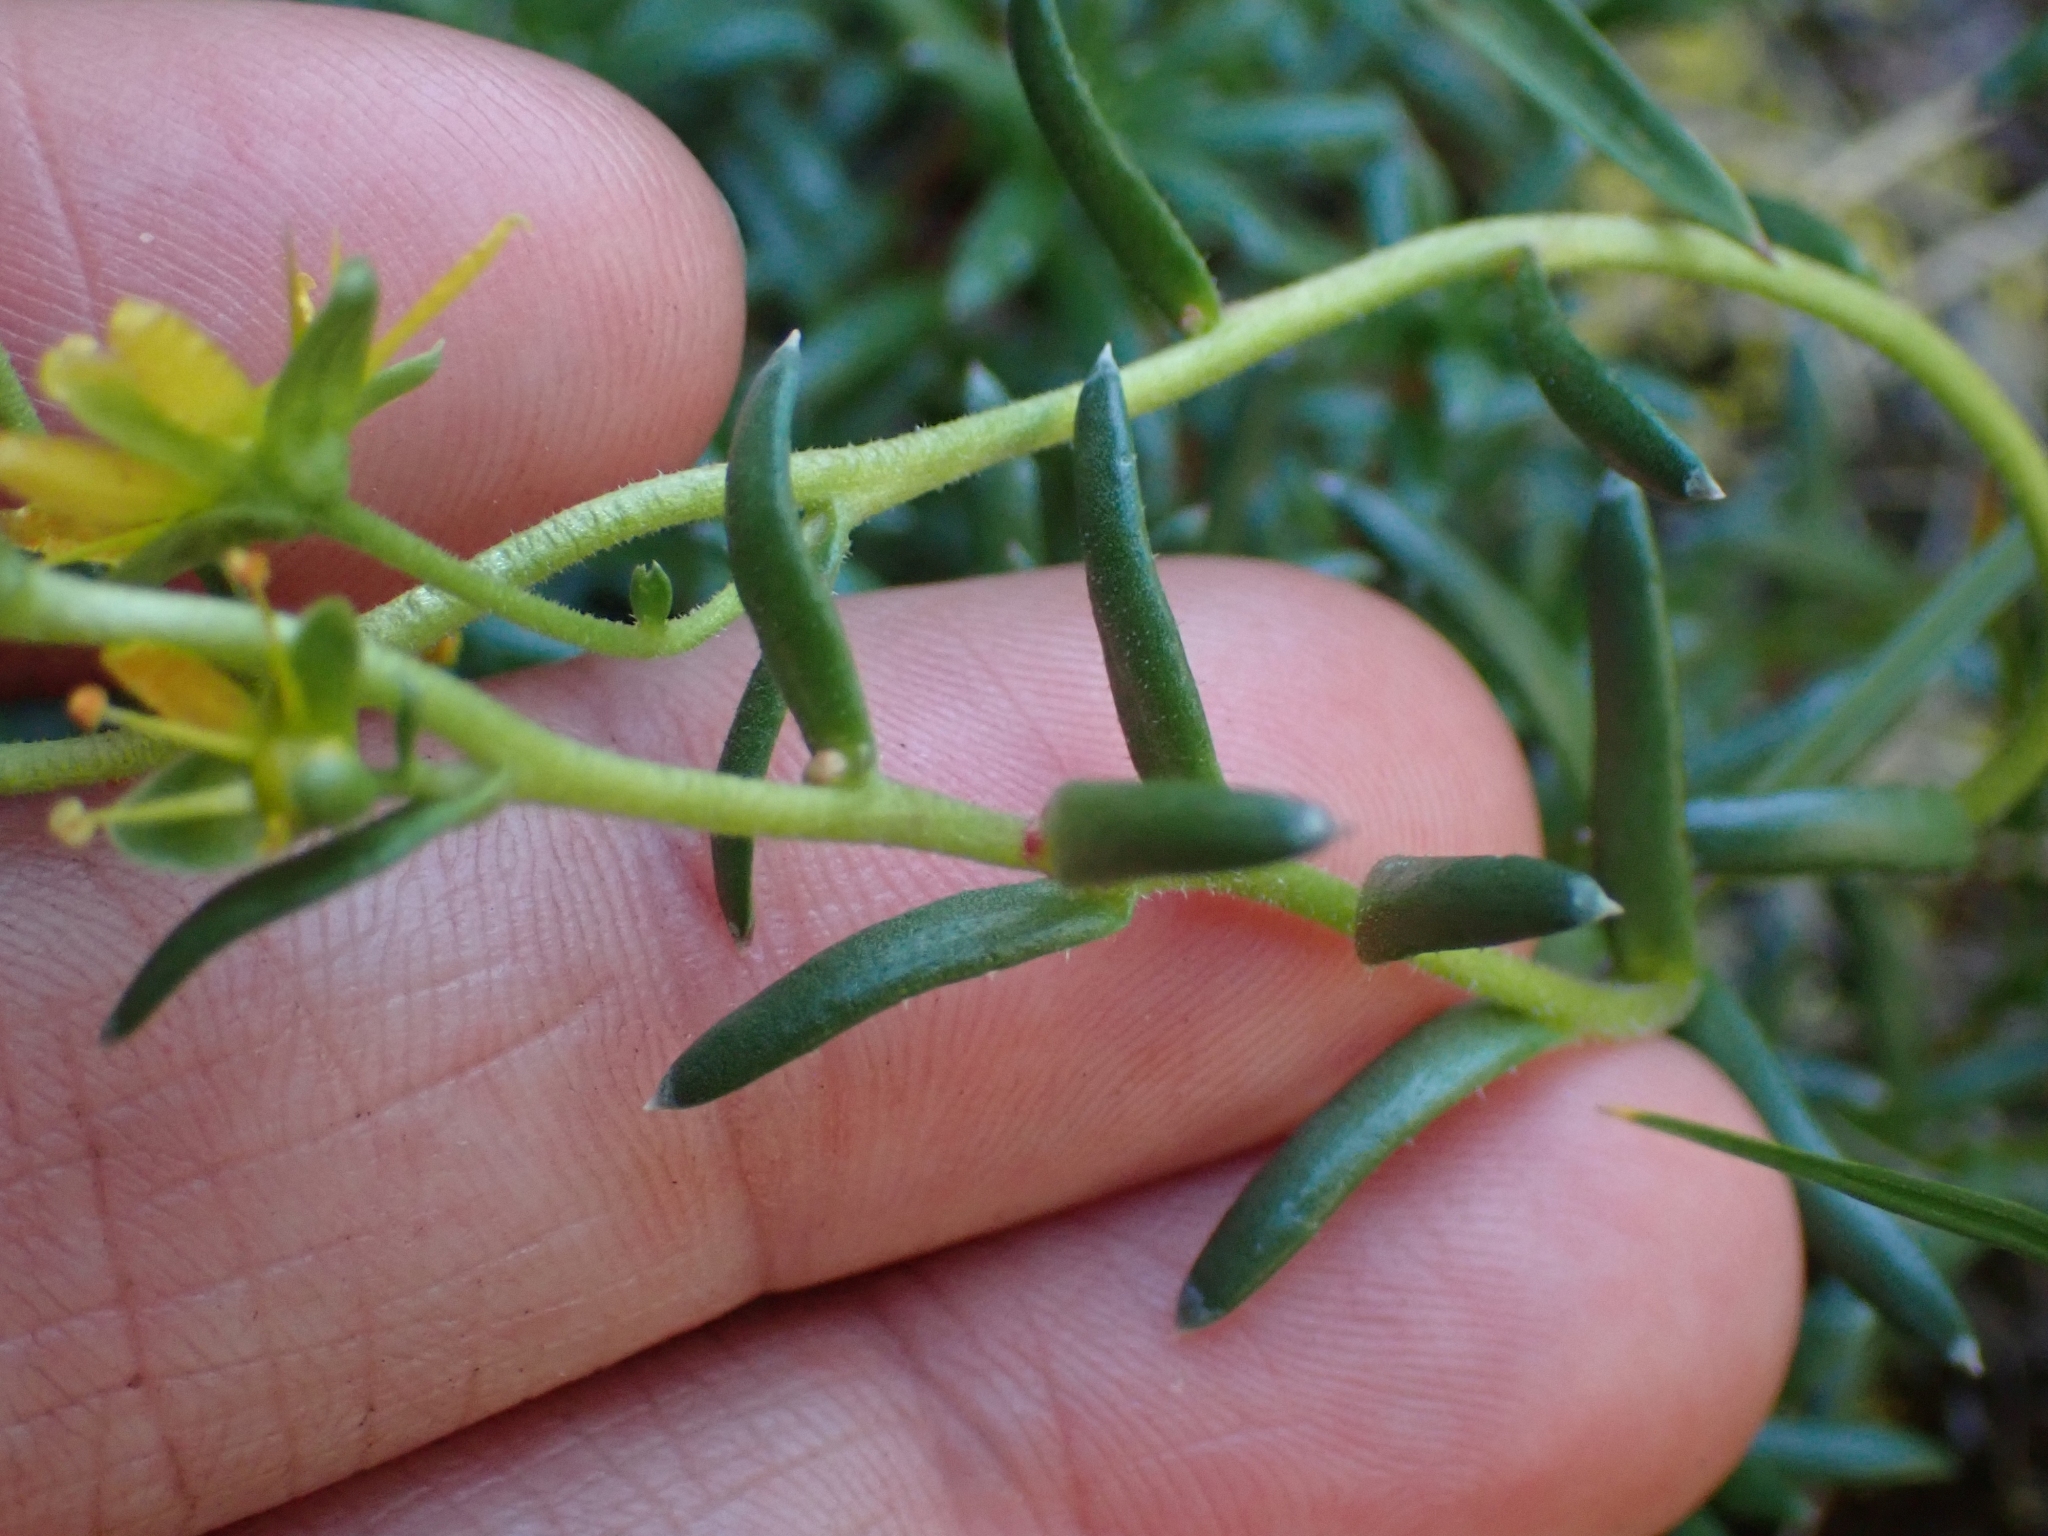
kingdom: Plantae
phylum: Tracheophyta
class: Magnoliopsida
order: Saxifragales
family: Saxifragaceae
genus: Saxifraga
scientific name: Saxifraga aizoides
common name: Yellow mountain saxifrage
